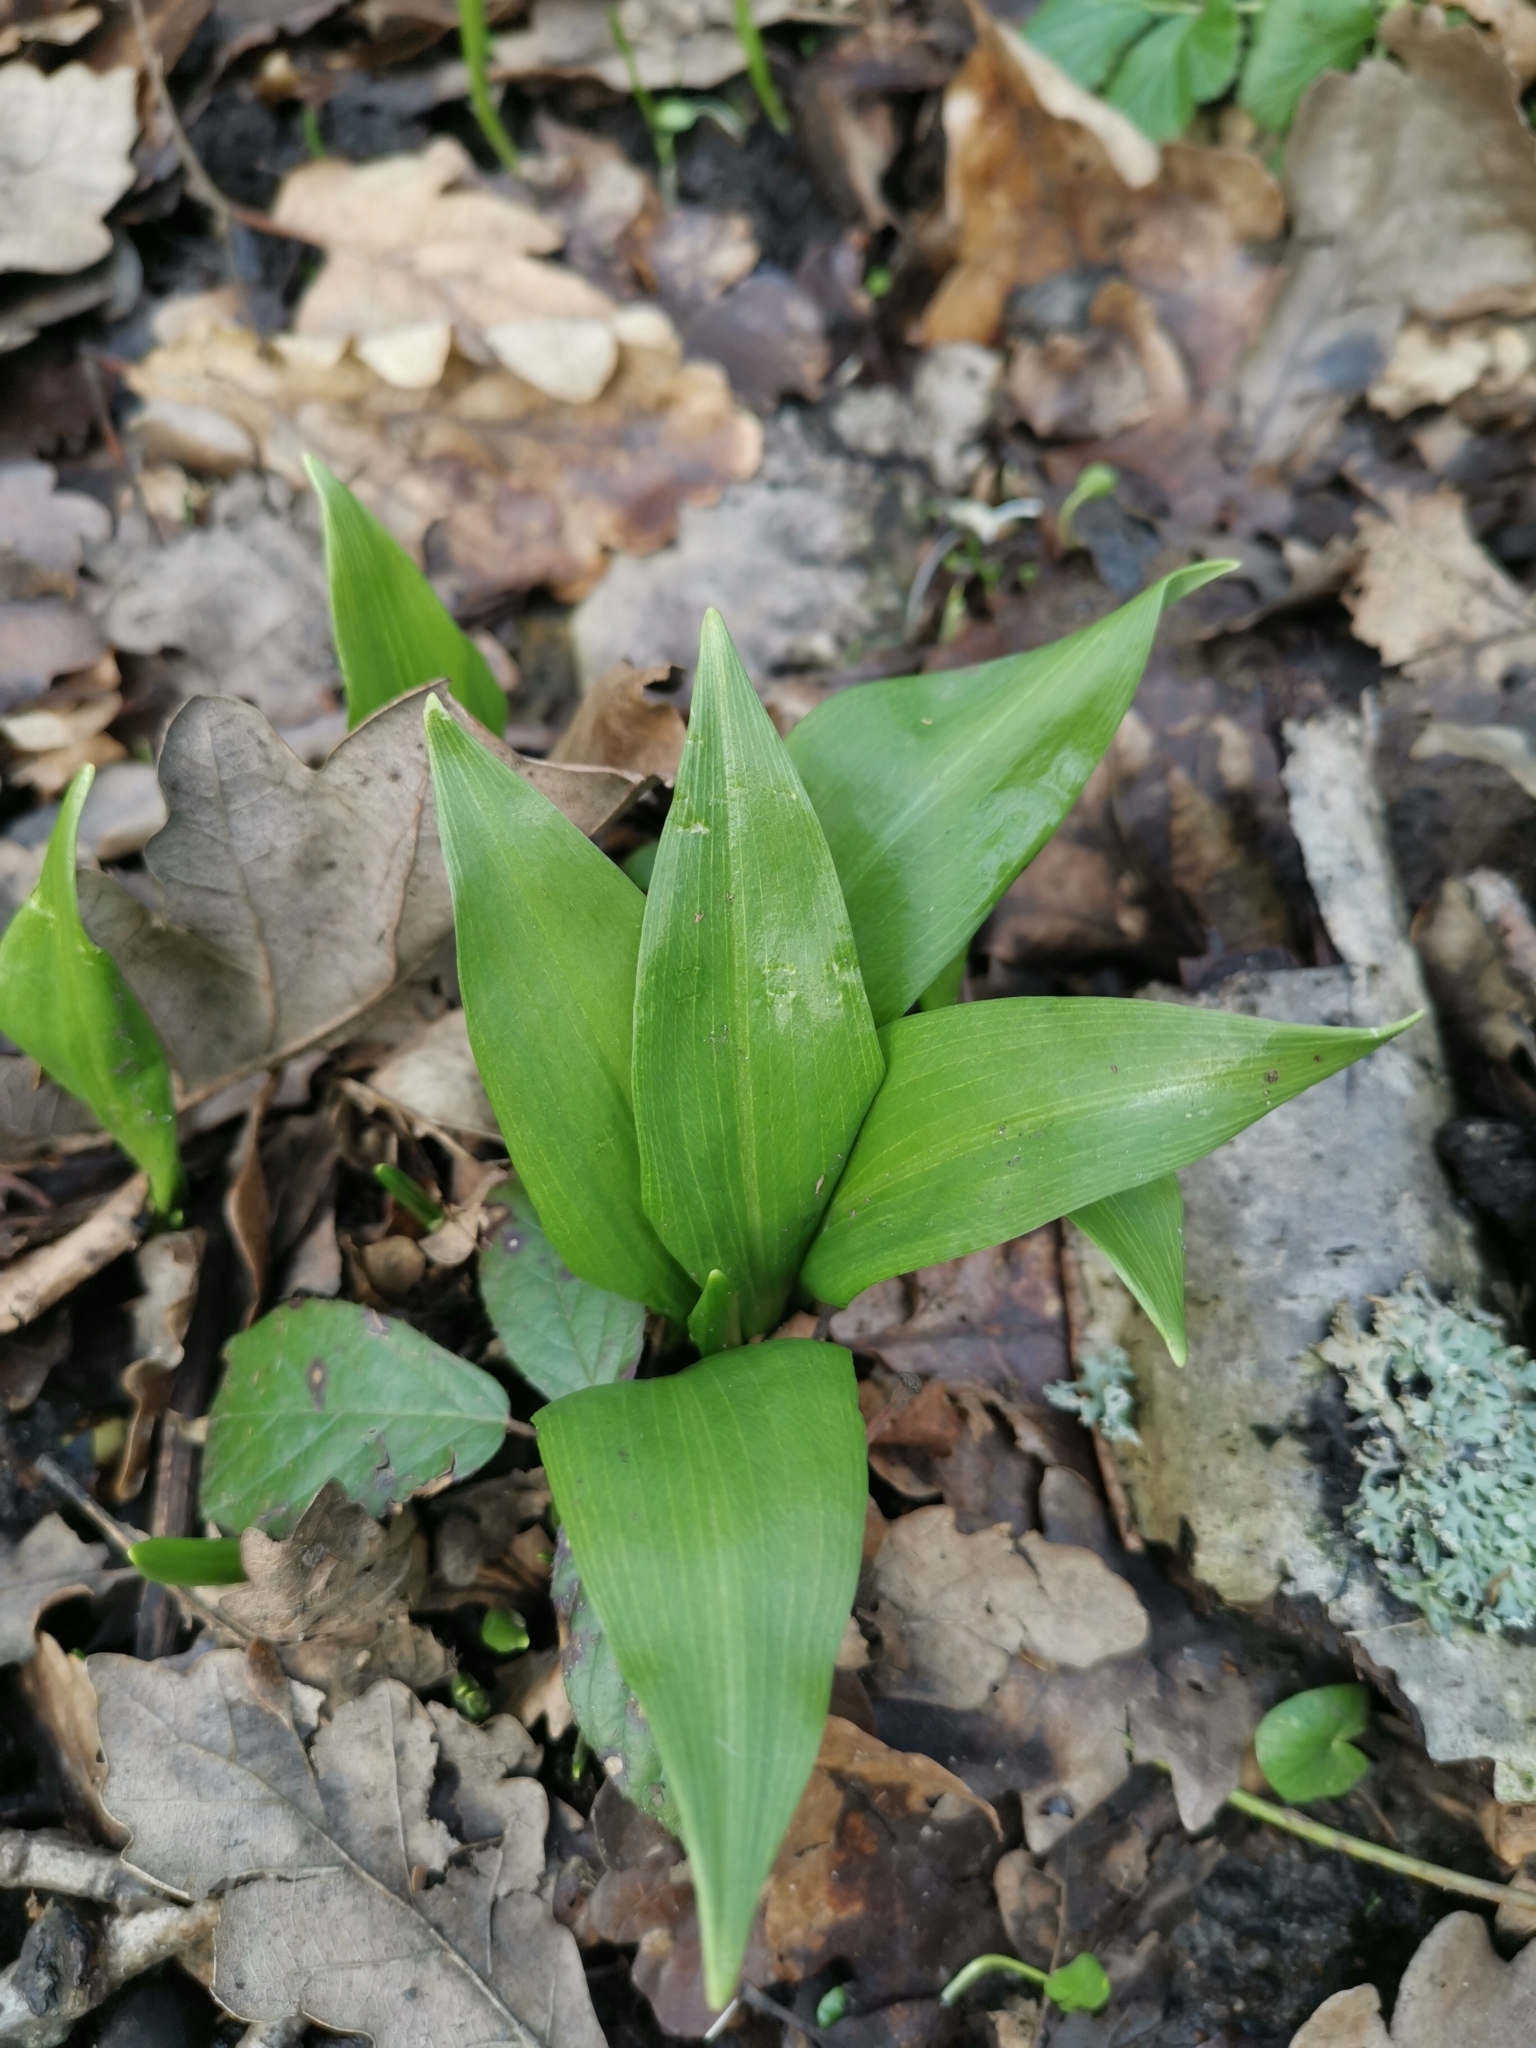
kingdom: Plantae
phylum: Tracheophyta
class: Liliopsida
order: Asparagales
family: Amaryllidaceae
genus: Allium
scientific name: Allium ursinum
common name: Ramsons
